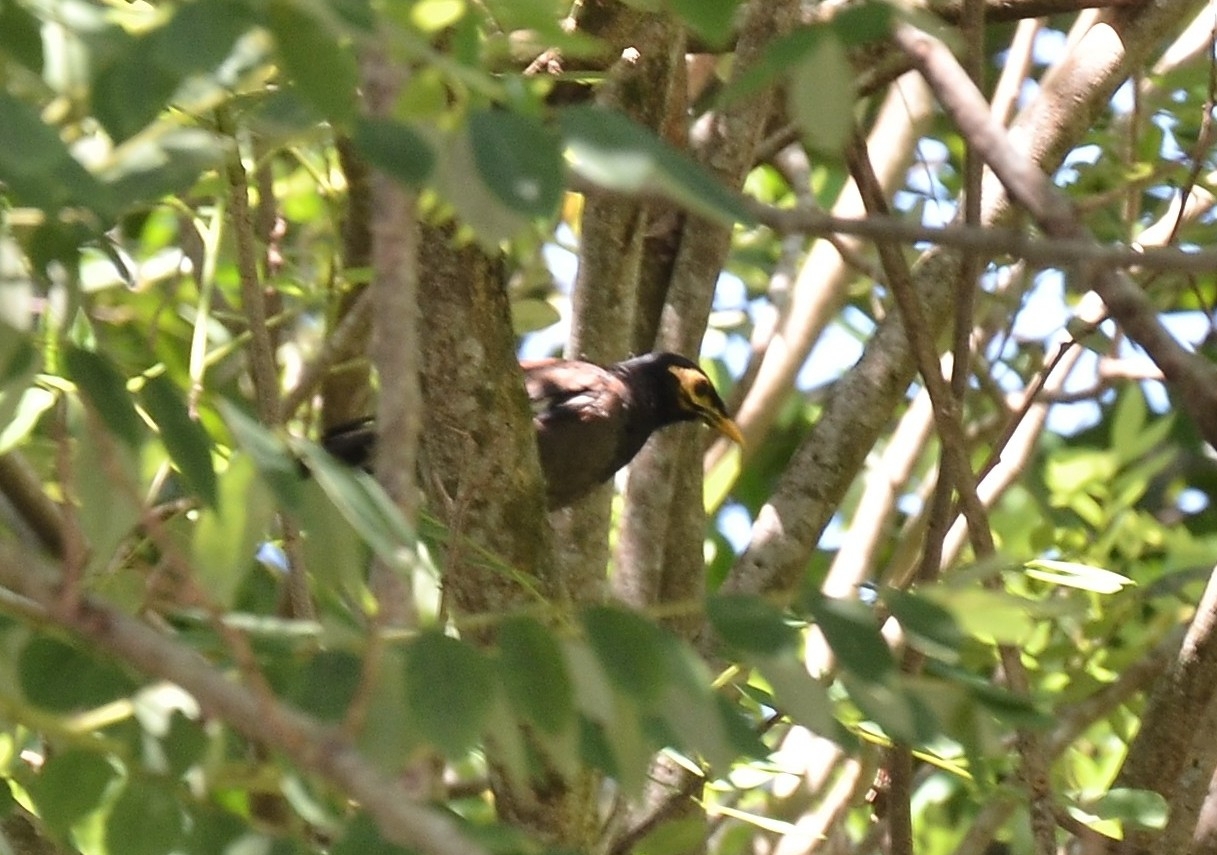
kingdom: Animalia
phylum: Chordata
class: Aves
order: Passeriformes
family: Sturnidae
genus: Acridotheres
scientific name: Acridotheres tristis
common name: Common myna
